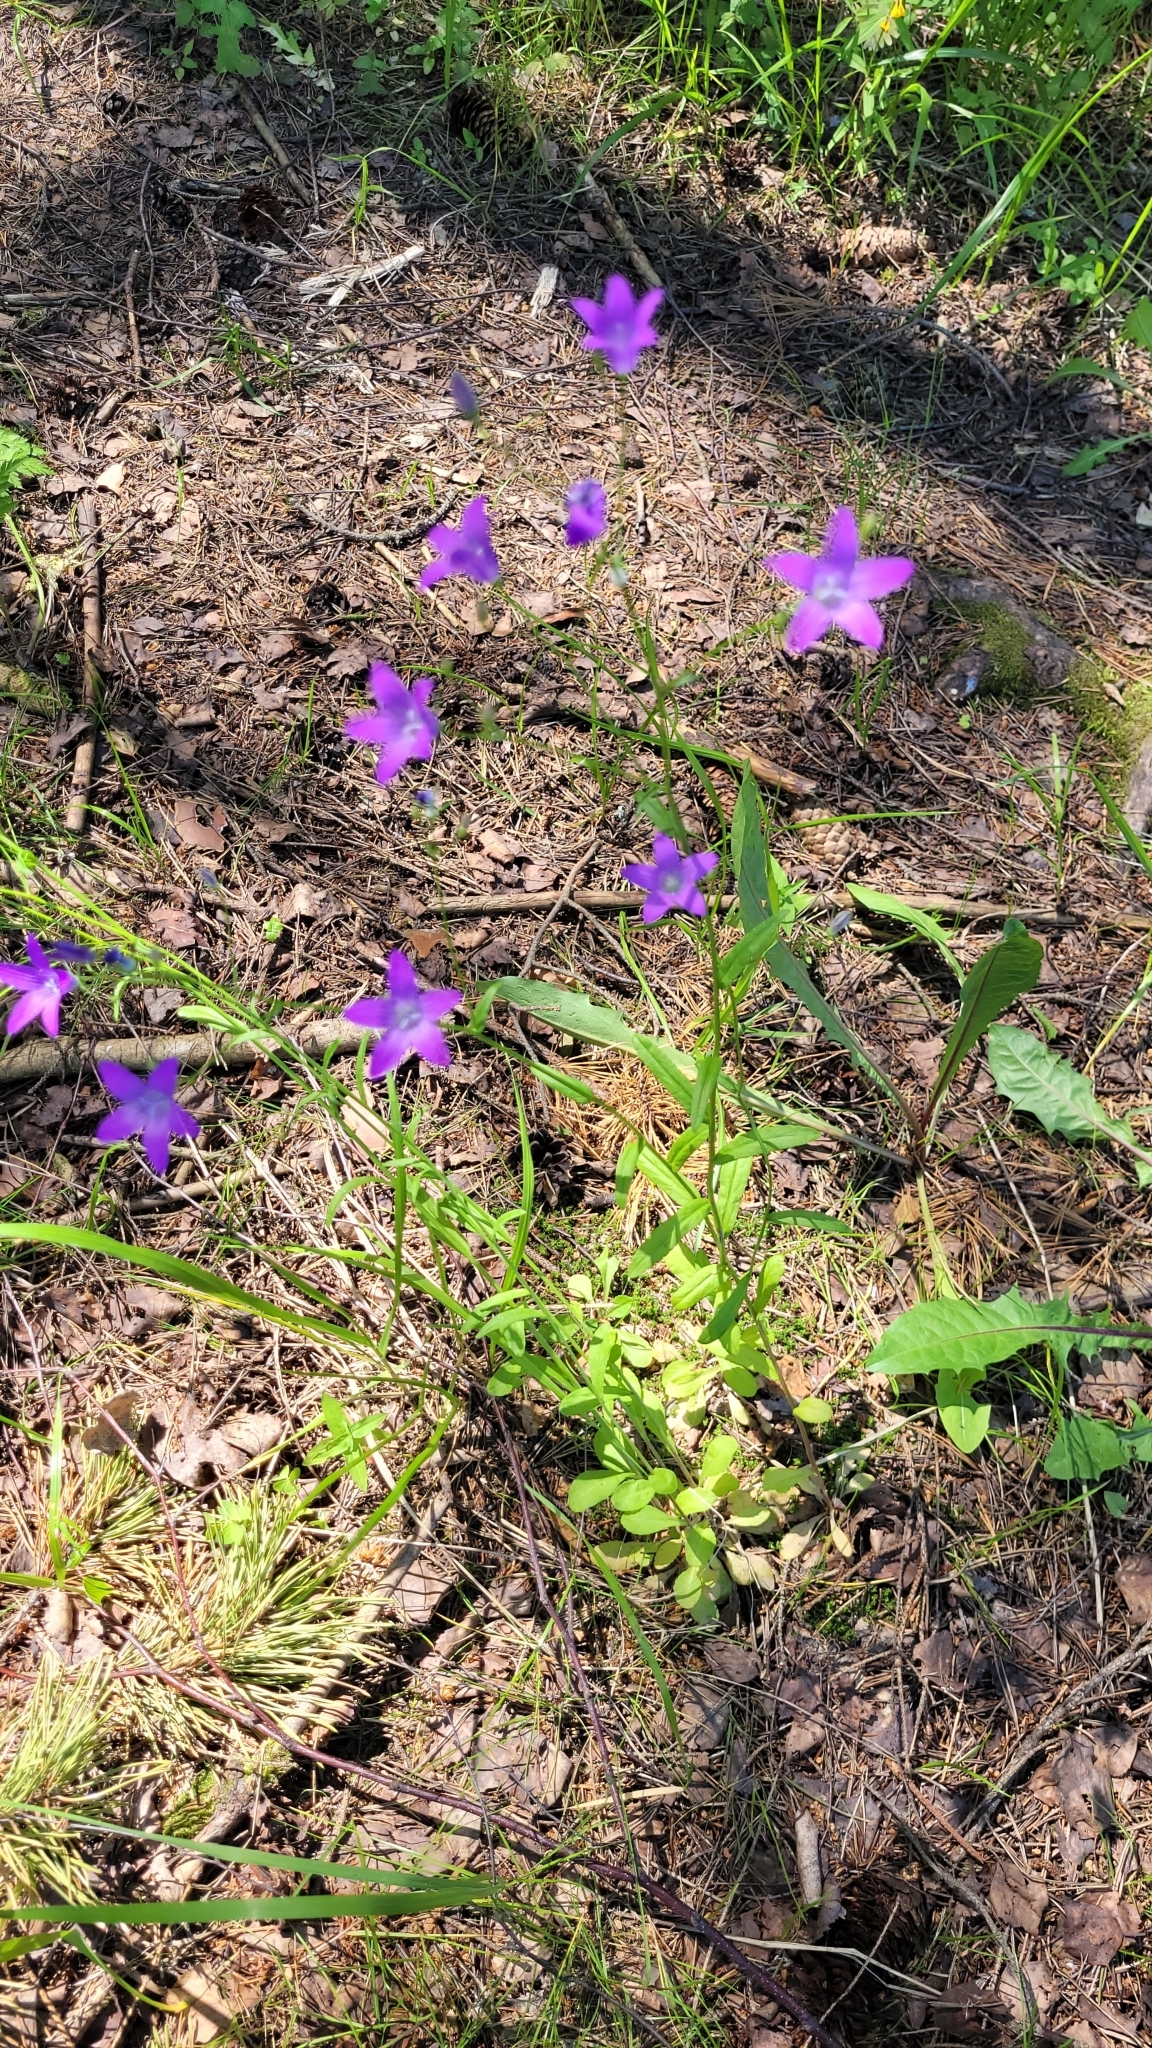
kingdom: Plantae
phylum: Tracheophyta
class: Magnoliopsida
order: Asterales
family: Campanulaceae
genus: Campanula
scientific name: Campanula patula
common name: Spreading bellflower
